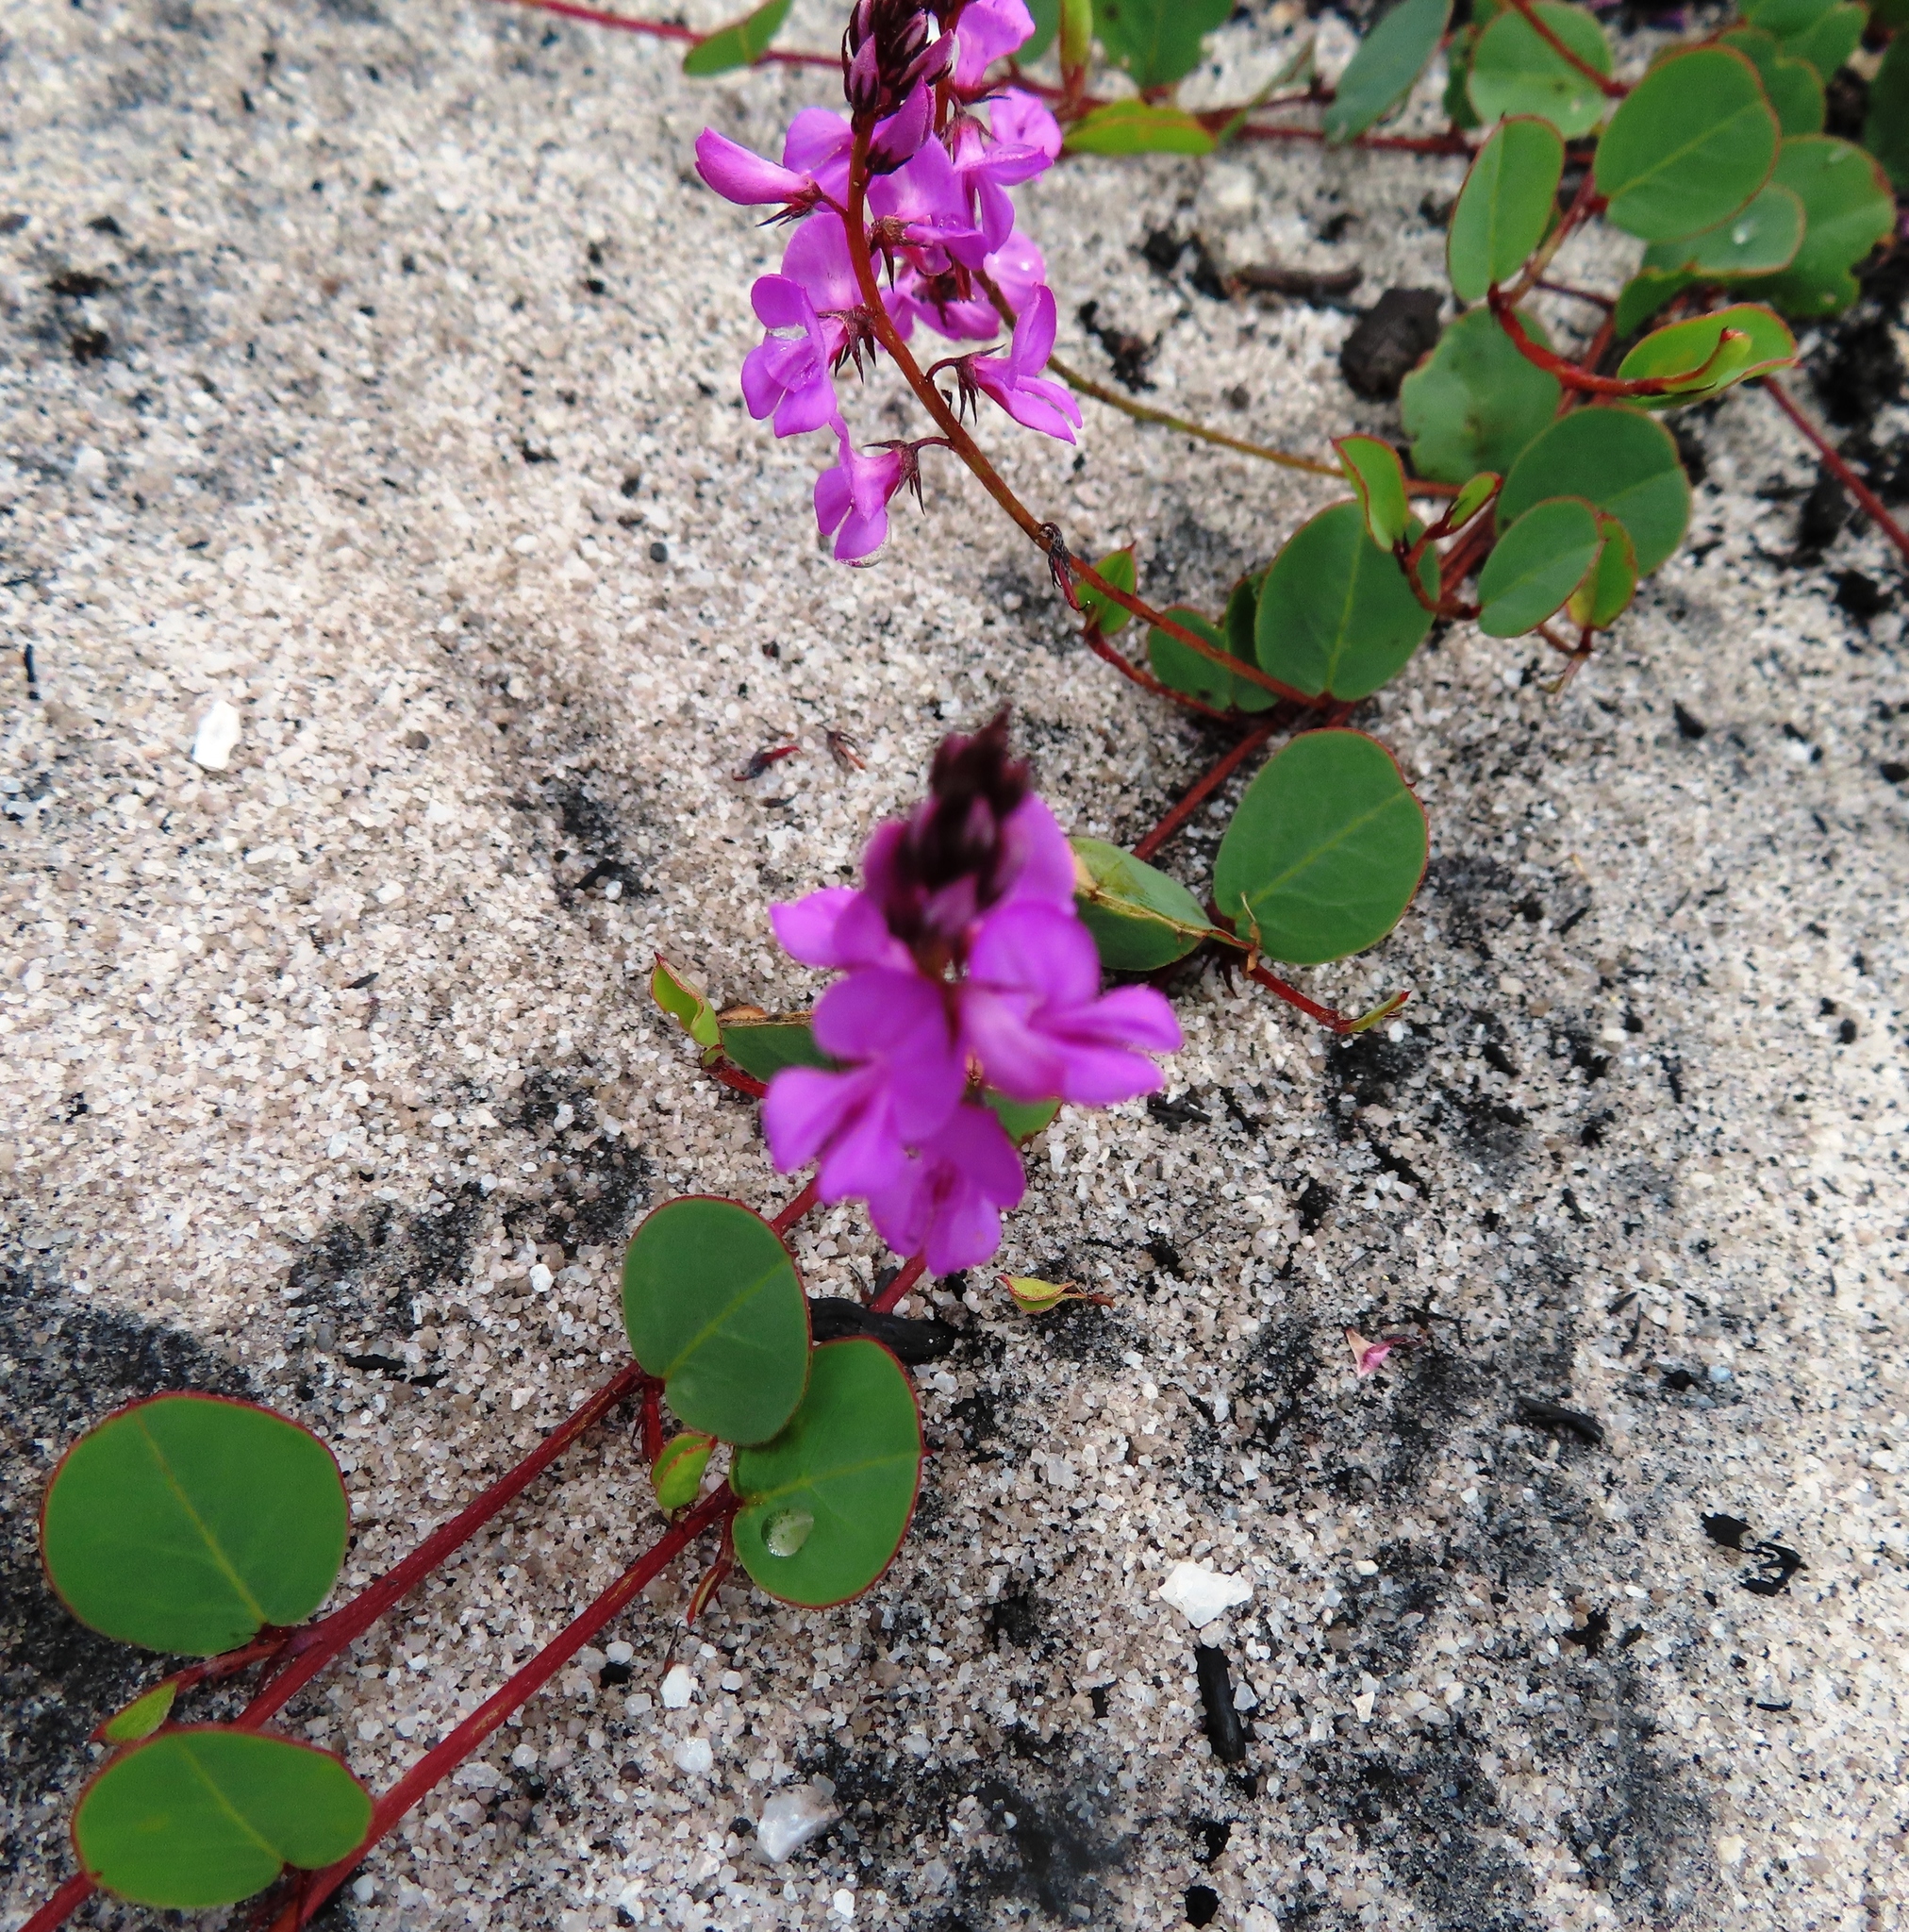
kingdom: Plantae
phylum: Tracheophyta
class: Magnoliopsida
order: Fabales
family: Fabaceae
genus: Indigofera
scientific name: Indigofera ovata
